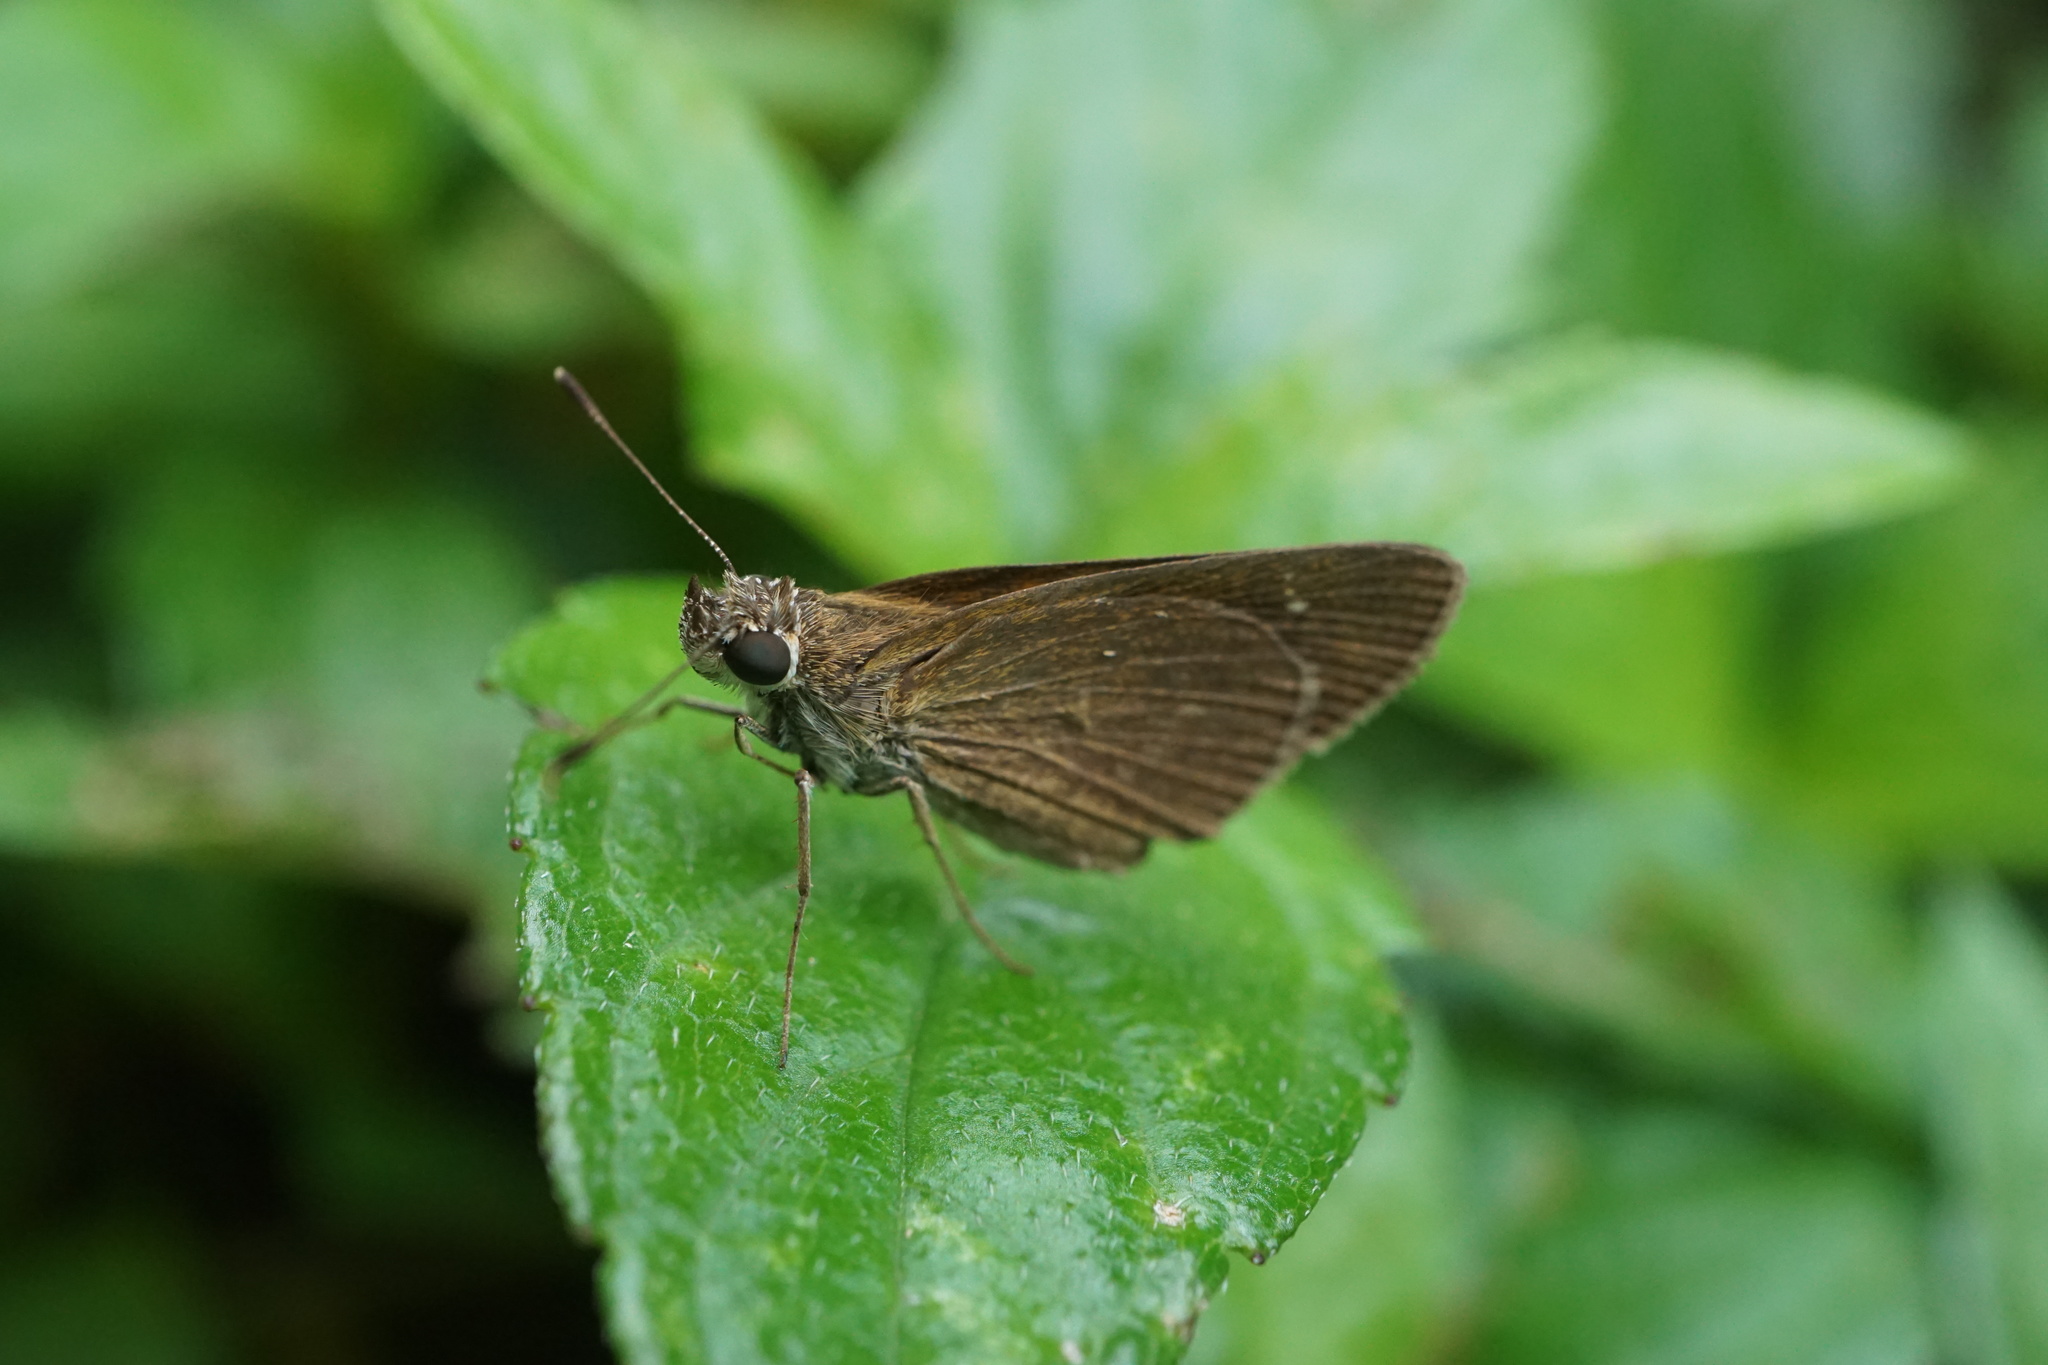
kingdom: Animalia
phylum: Arthropoda
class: Insecta
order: Lepidoptera
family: Hesperiidae
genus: Cymaenes
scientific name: Cymaenes tripunctus
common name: Dingy dotted skipper
